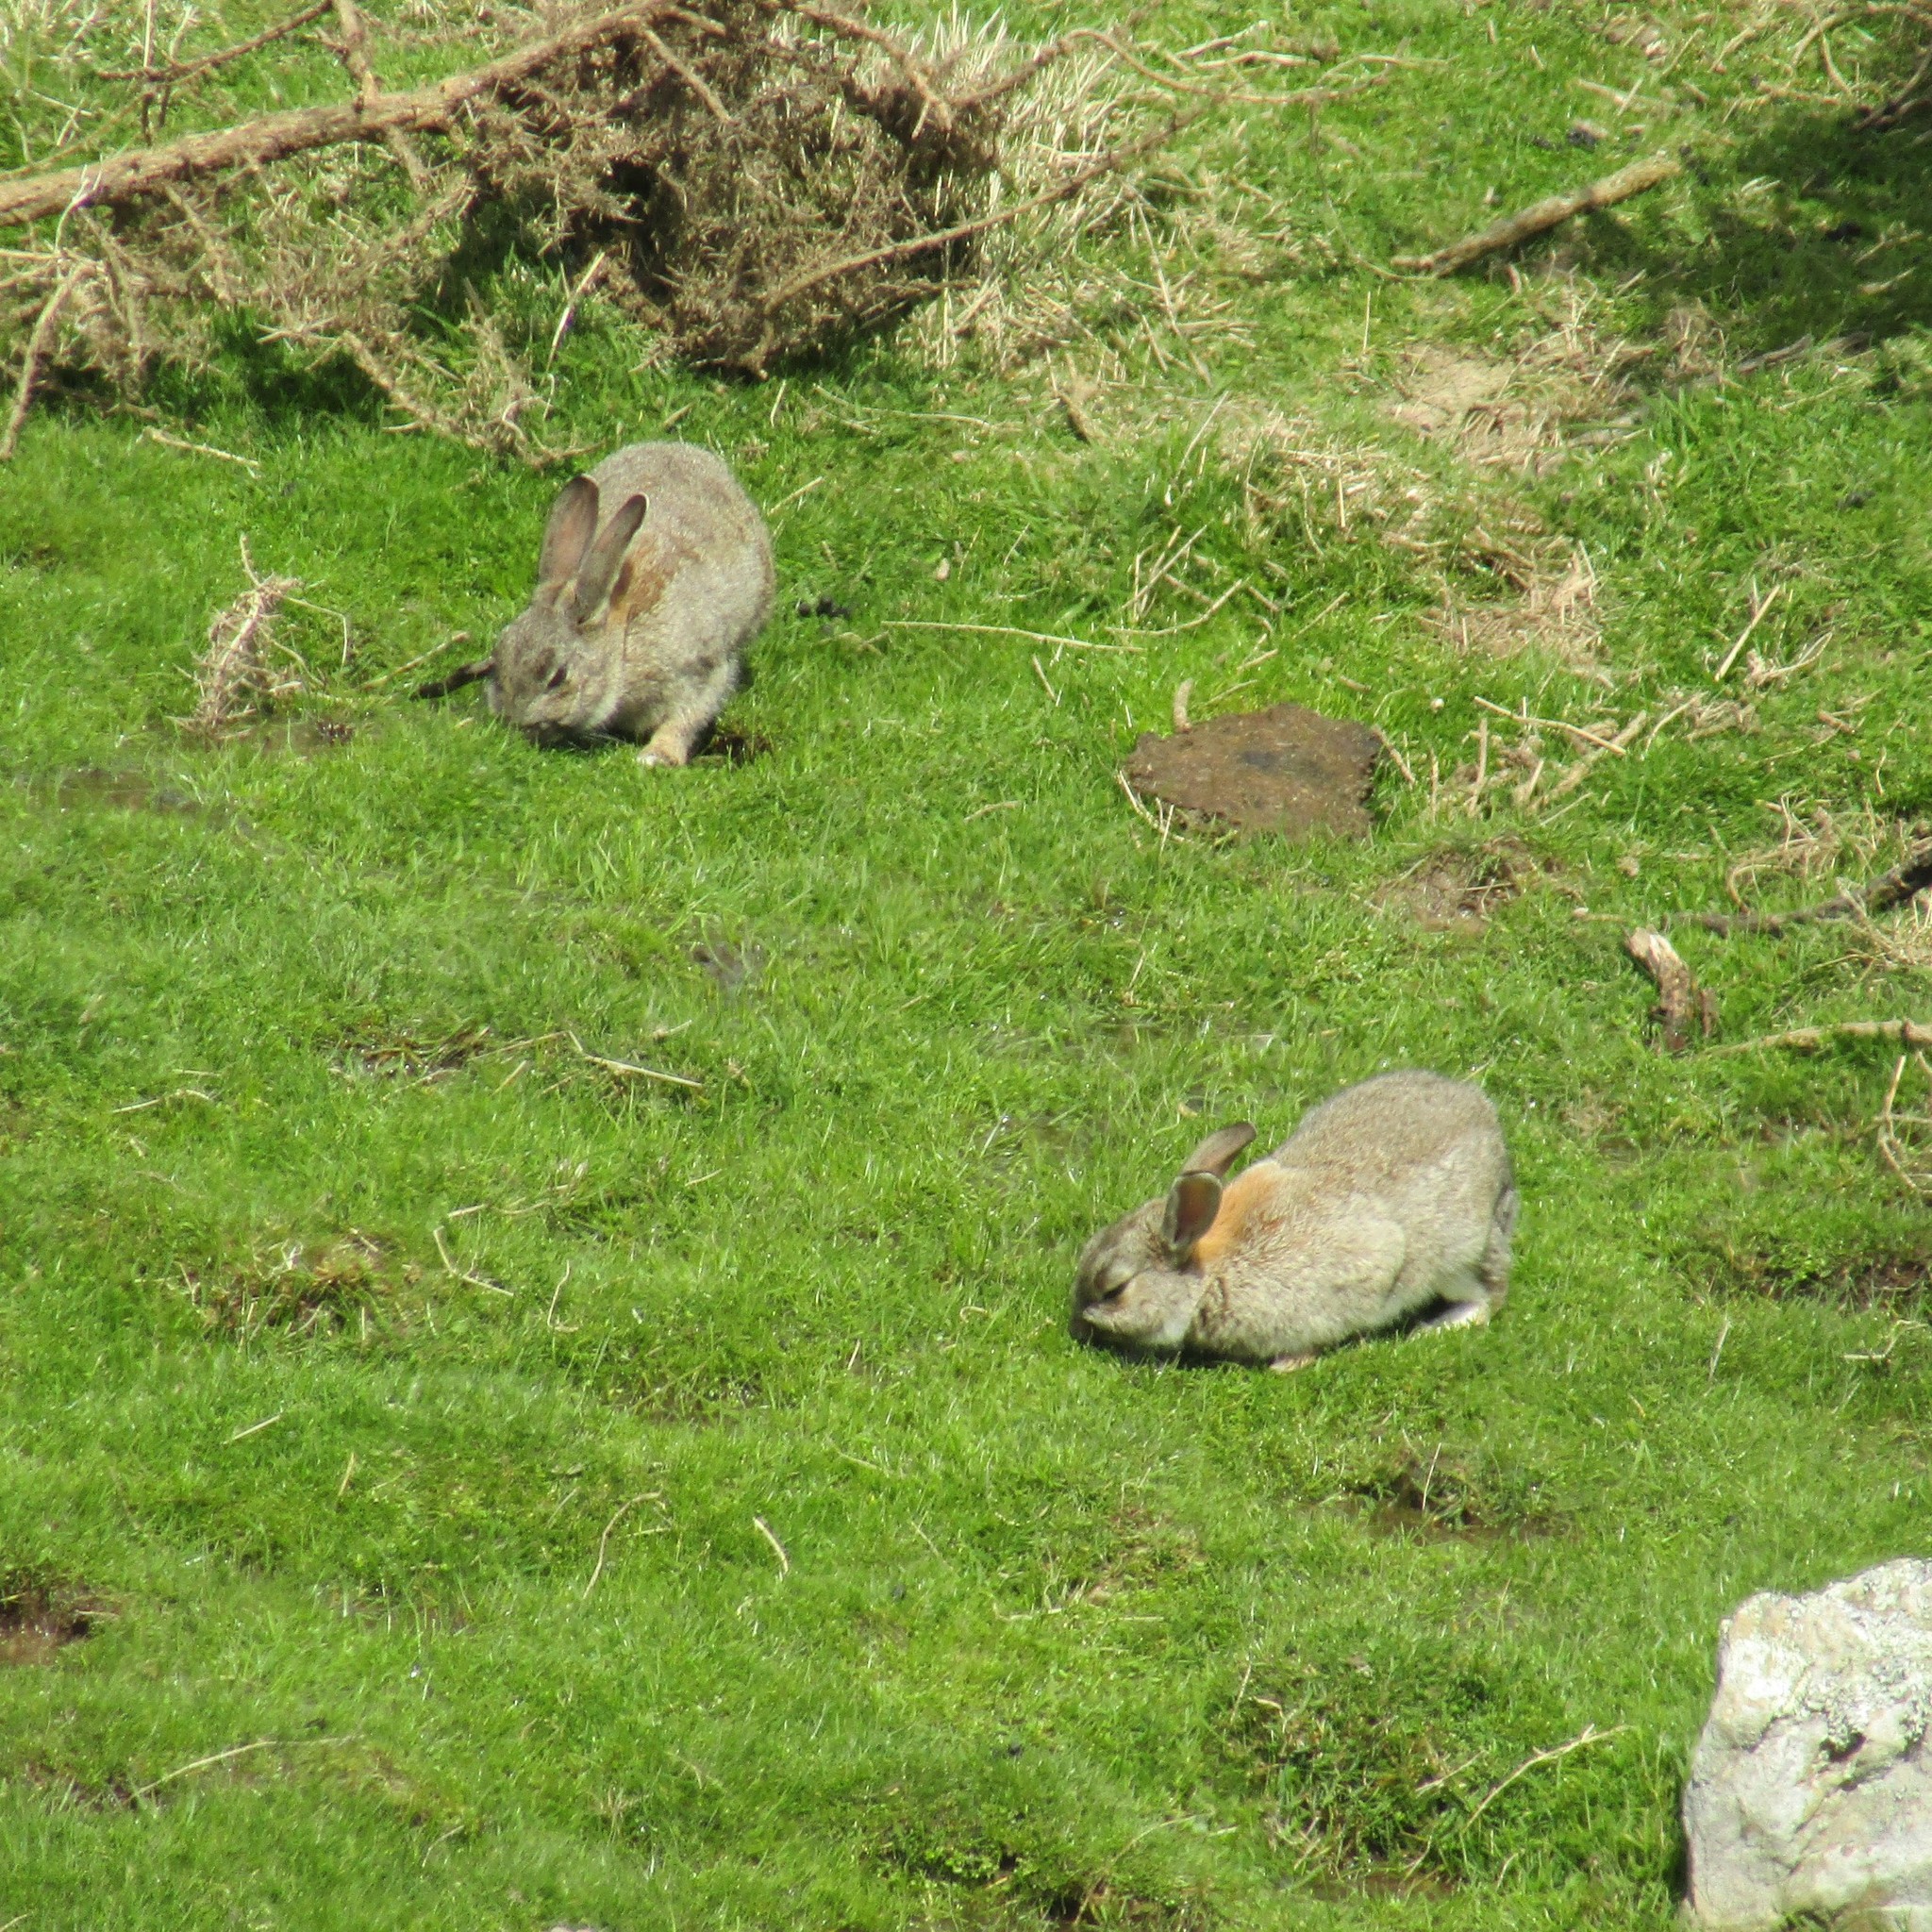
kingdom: Animalia
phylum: Chordata
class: Mammalia
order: Lagomorpha
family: Leporidae
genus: Oryctolagus
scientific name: Oryctolagus cuniculus
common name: European rabbit
